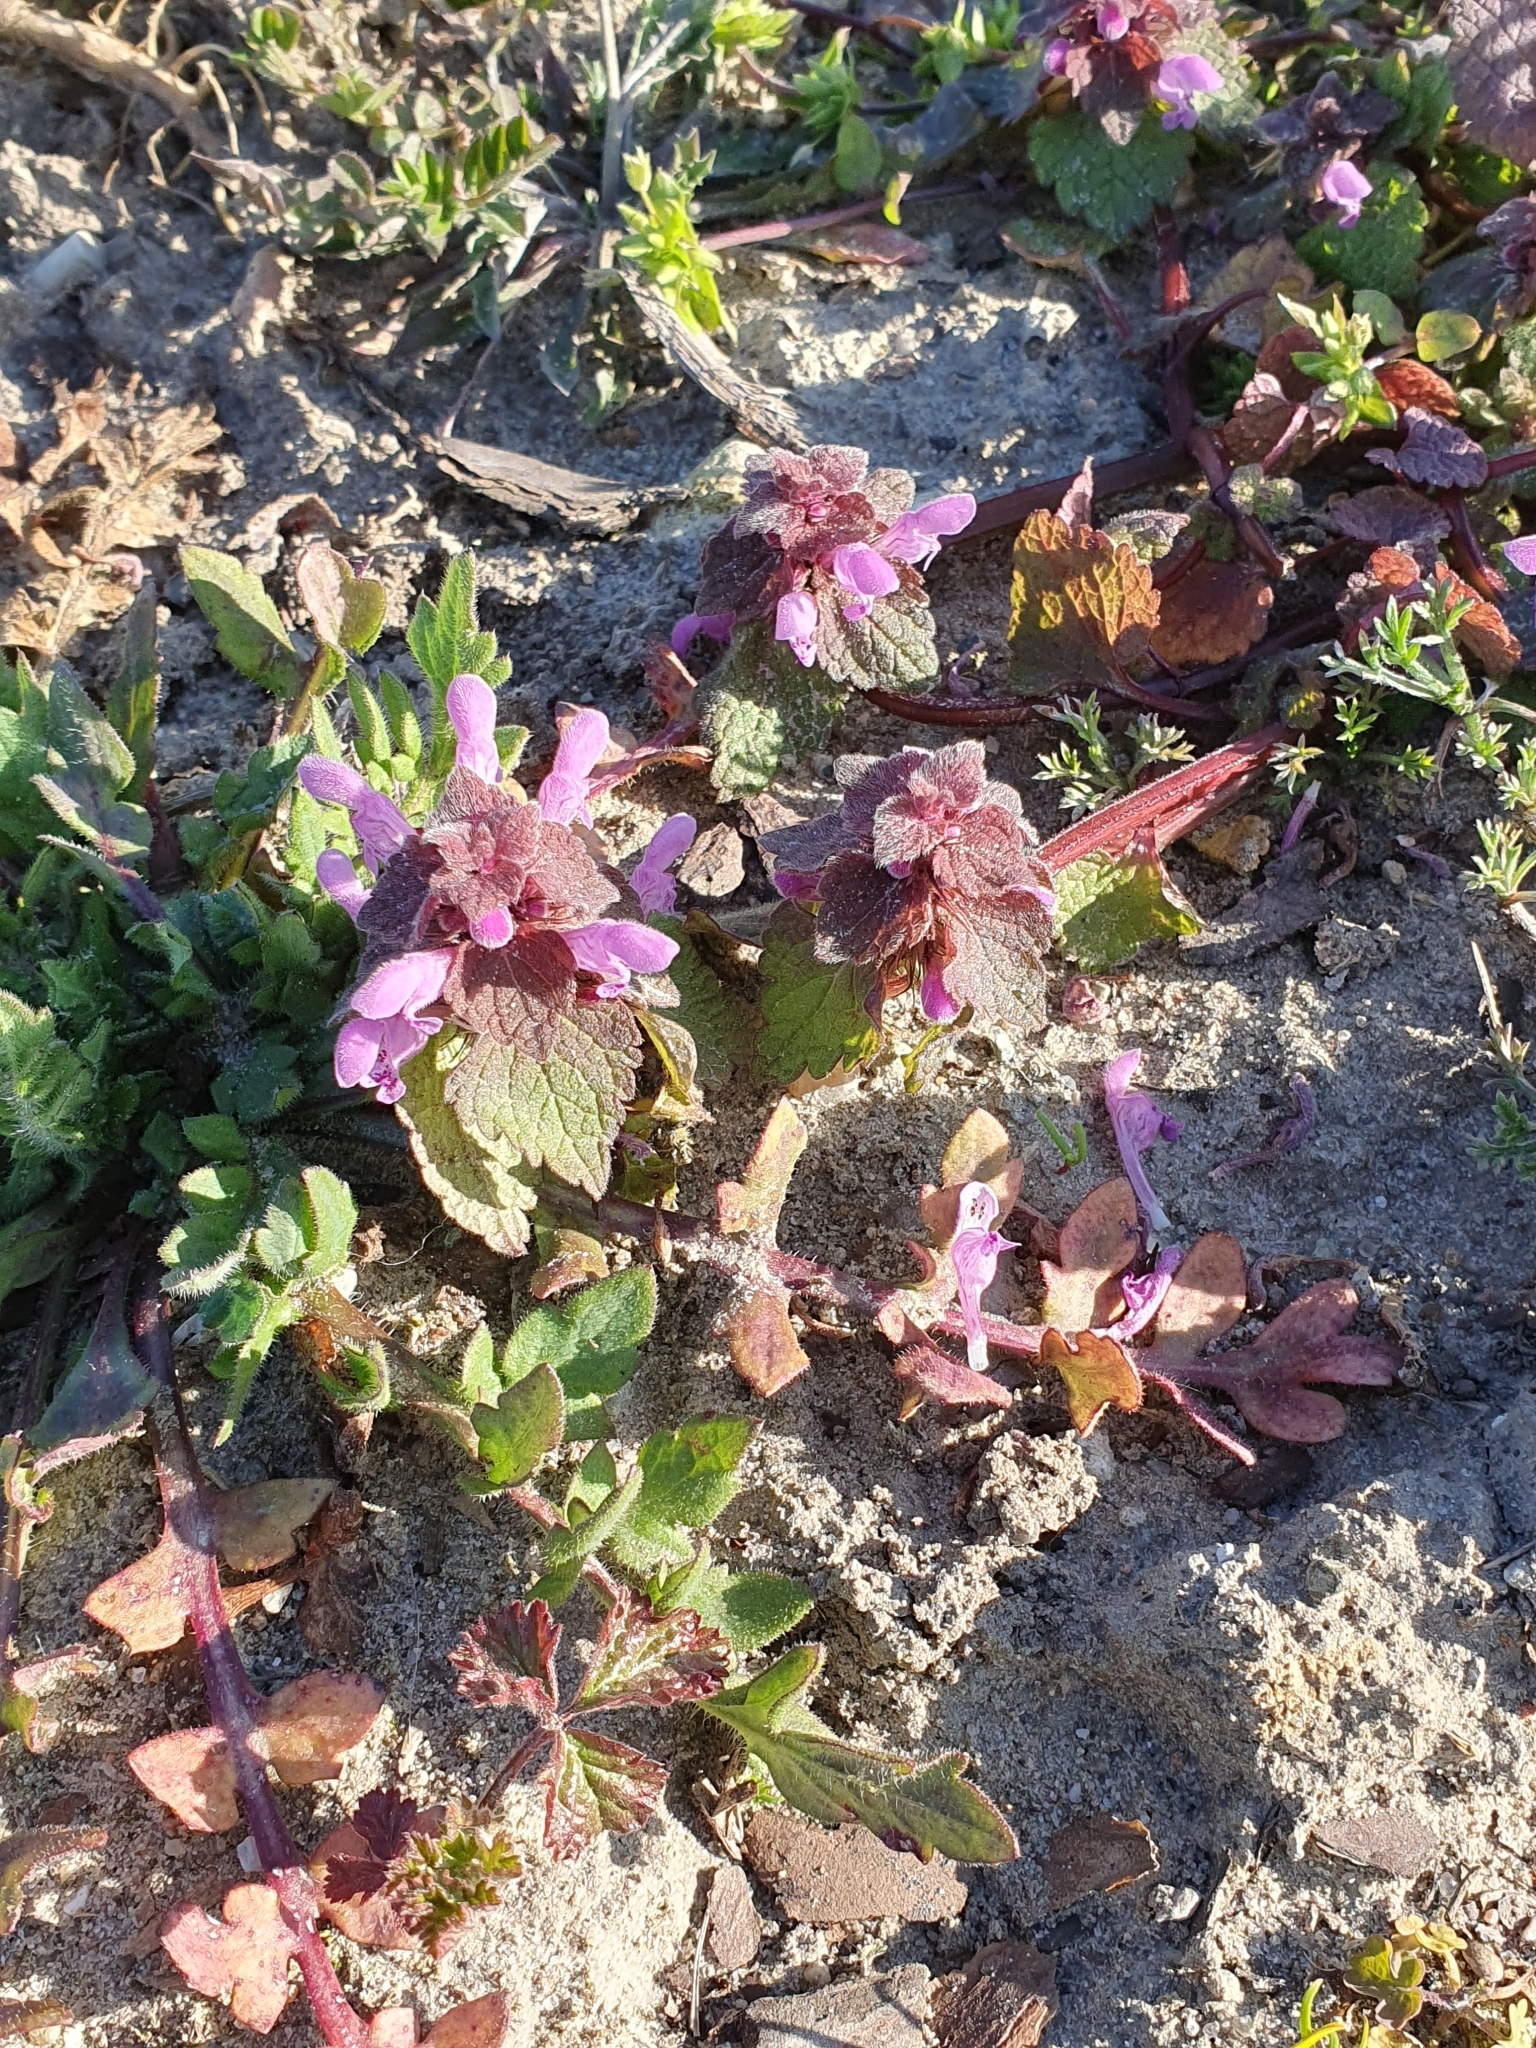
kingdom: Plantae
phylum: Tracheophyta
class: Magnoliopsida
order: Lamiales
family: Lamiaceae
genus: Lamium
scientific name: Lamium purpureum
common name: Red dead-nettle
